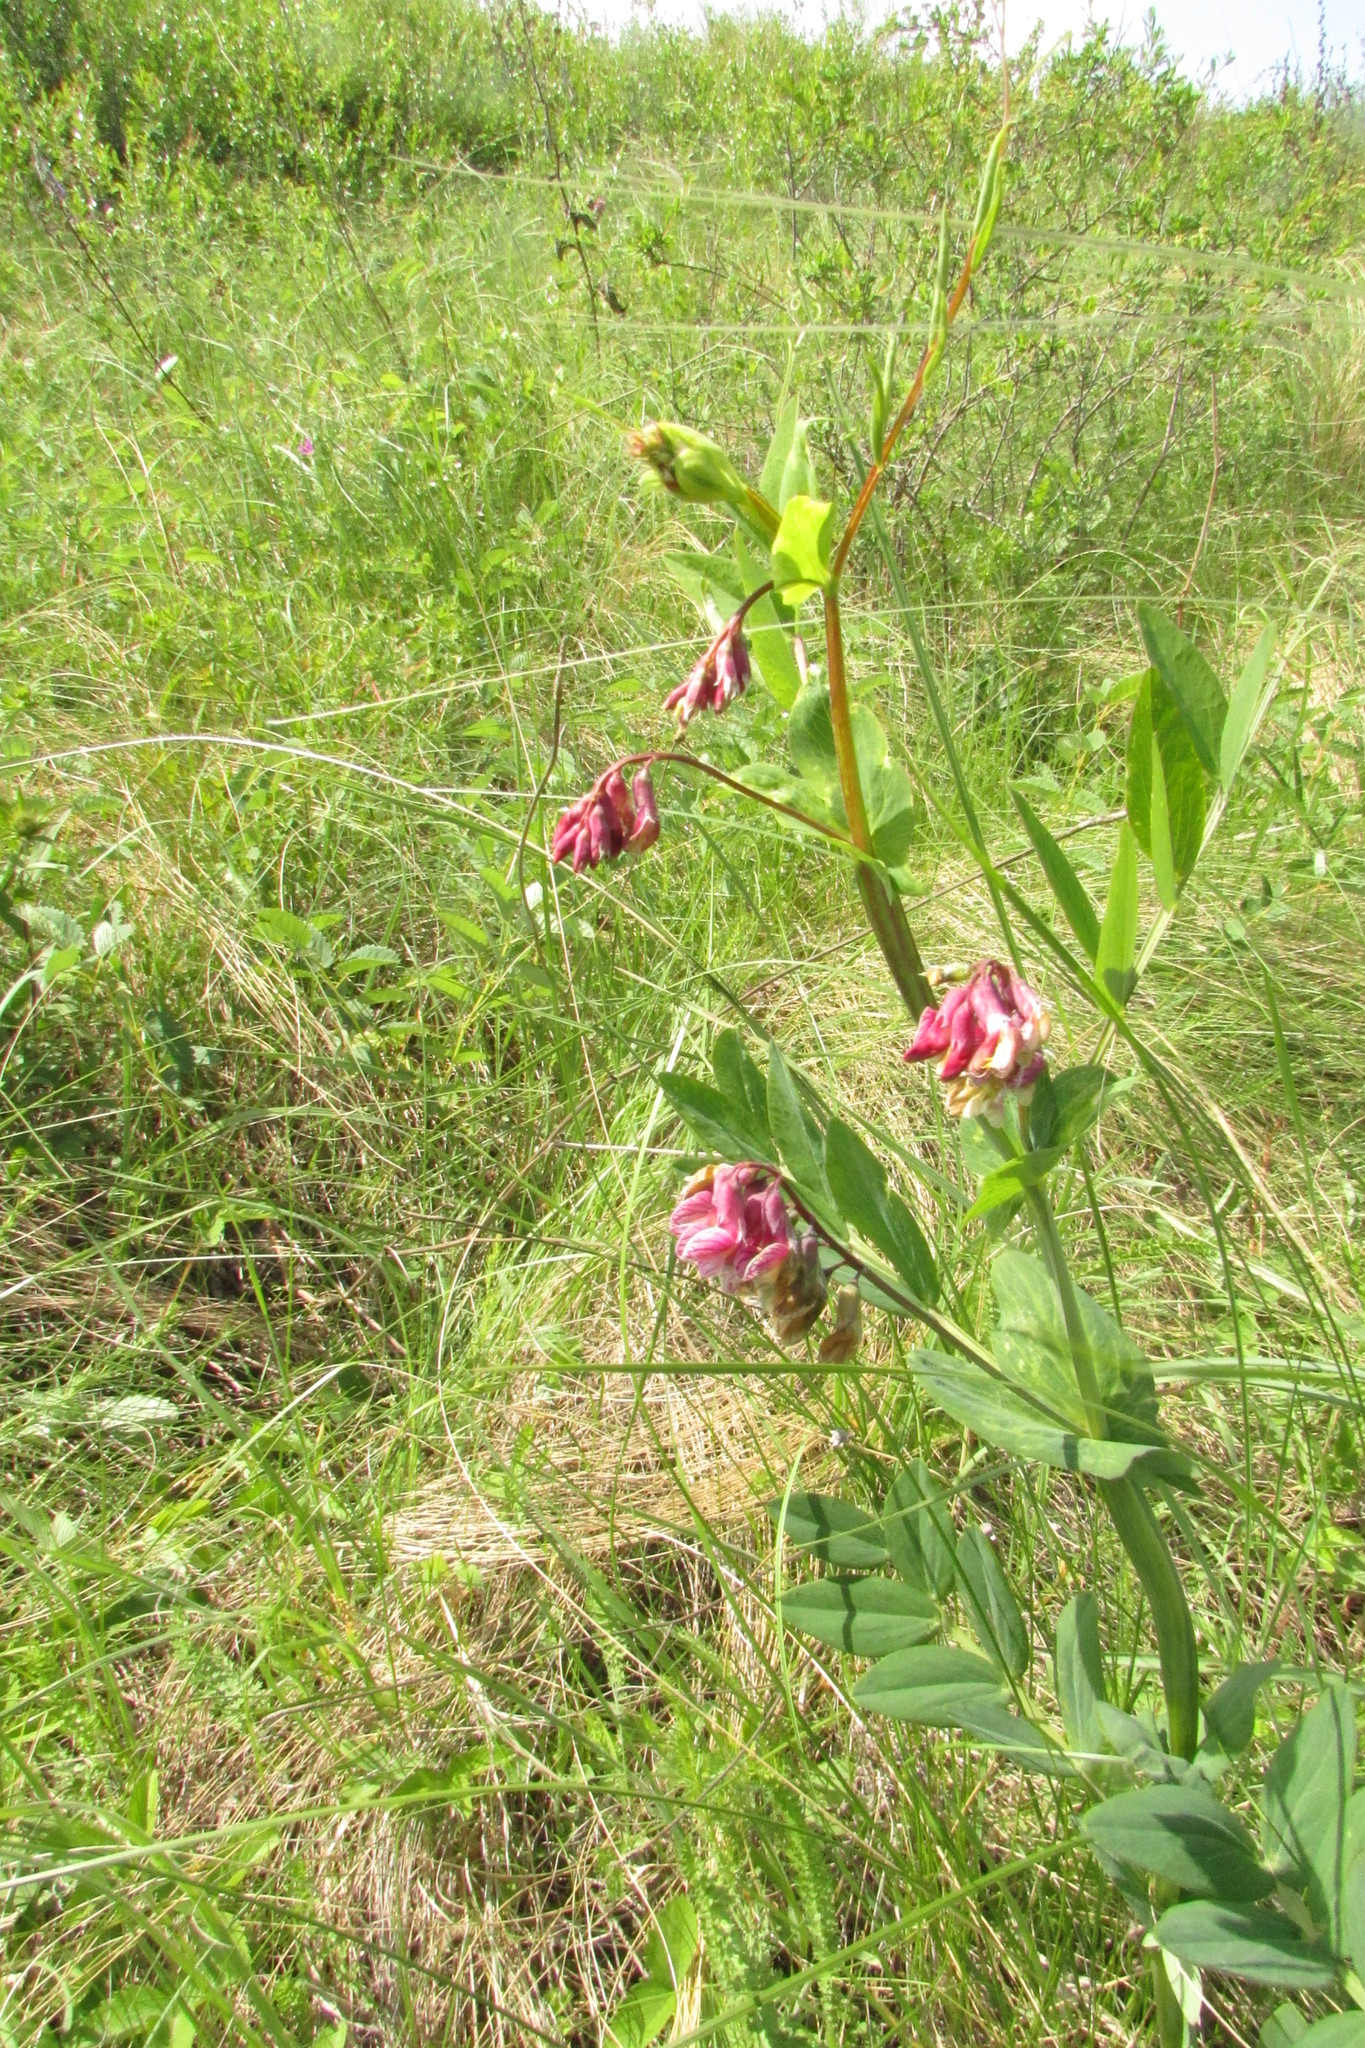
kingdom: Plantae
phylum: Tracheophyta
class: Magnoliopsida
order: Fabales
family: Fabaceae
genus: Lathyrus
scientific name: Lathyrus pisiformis
